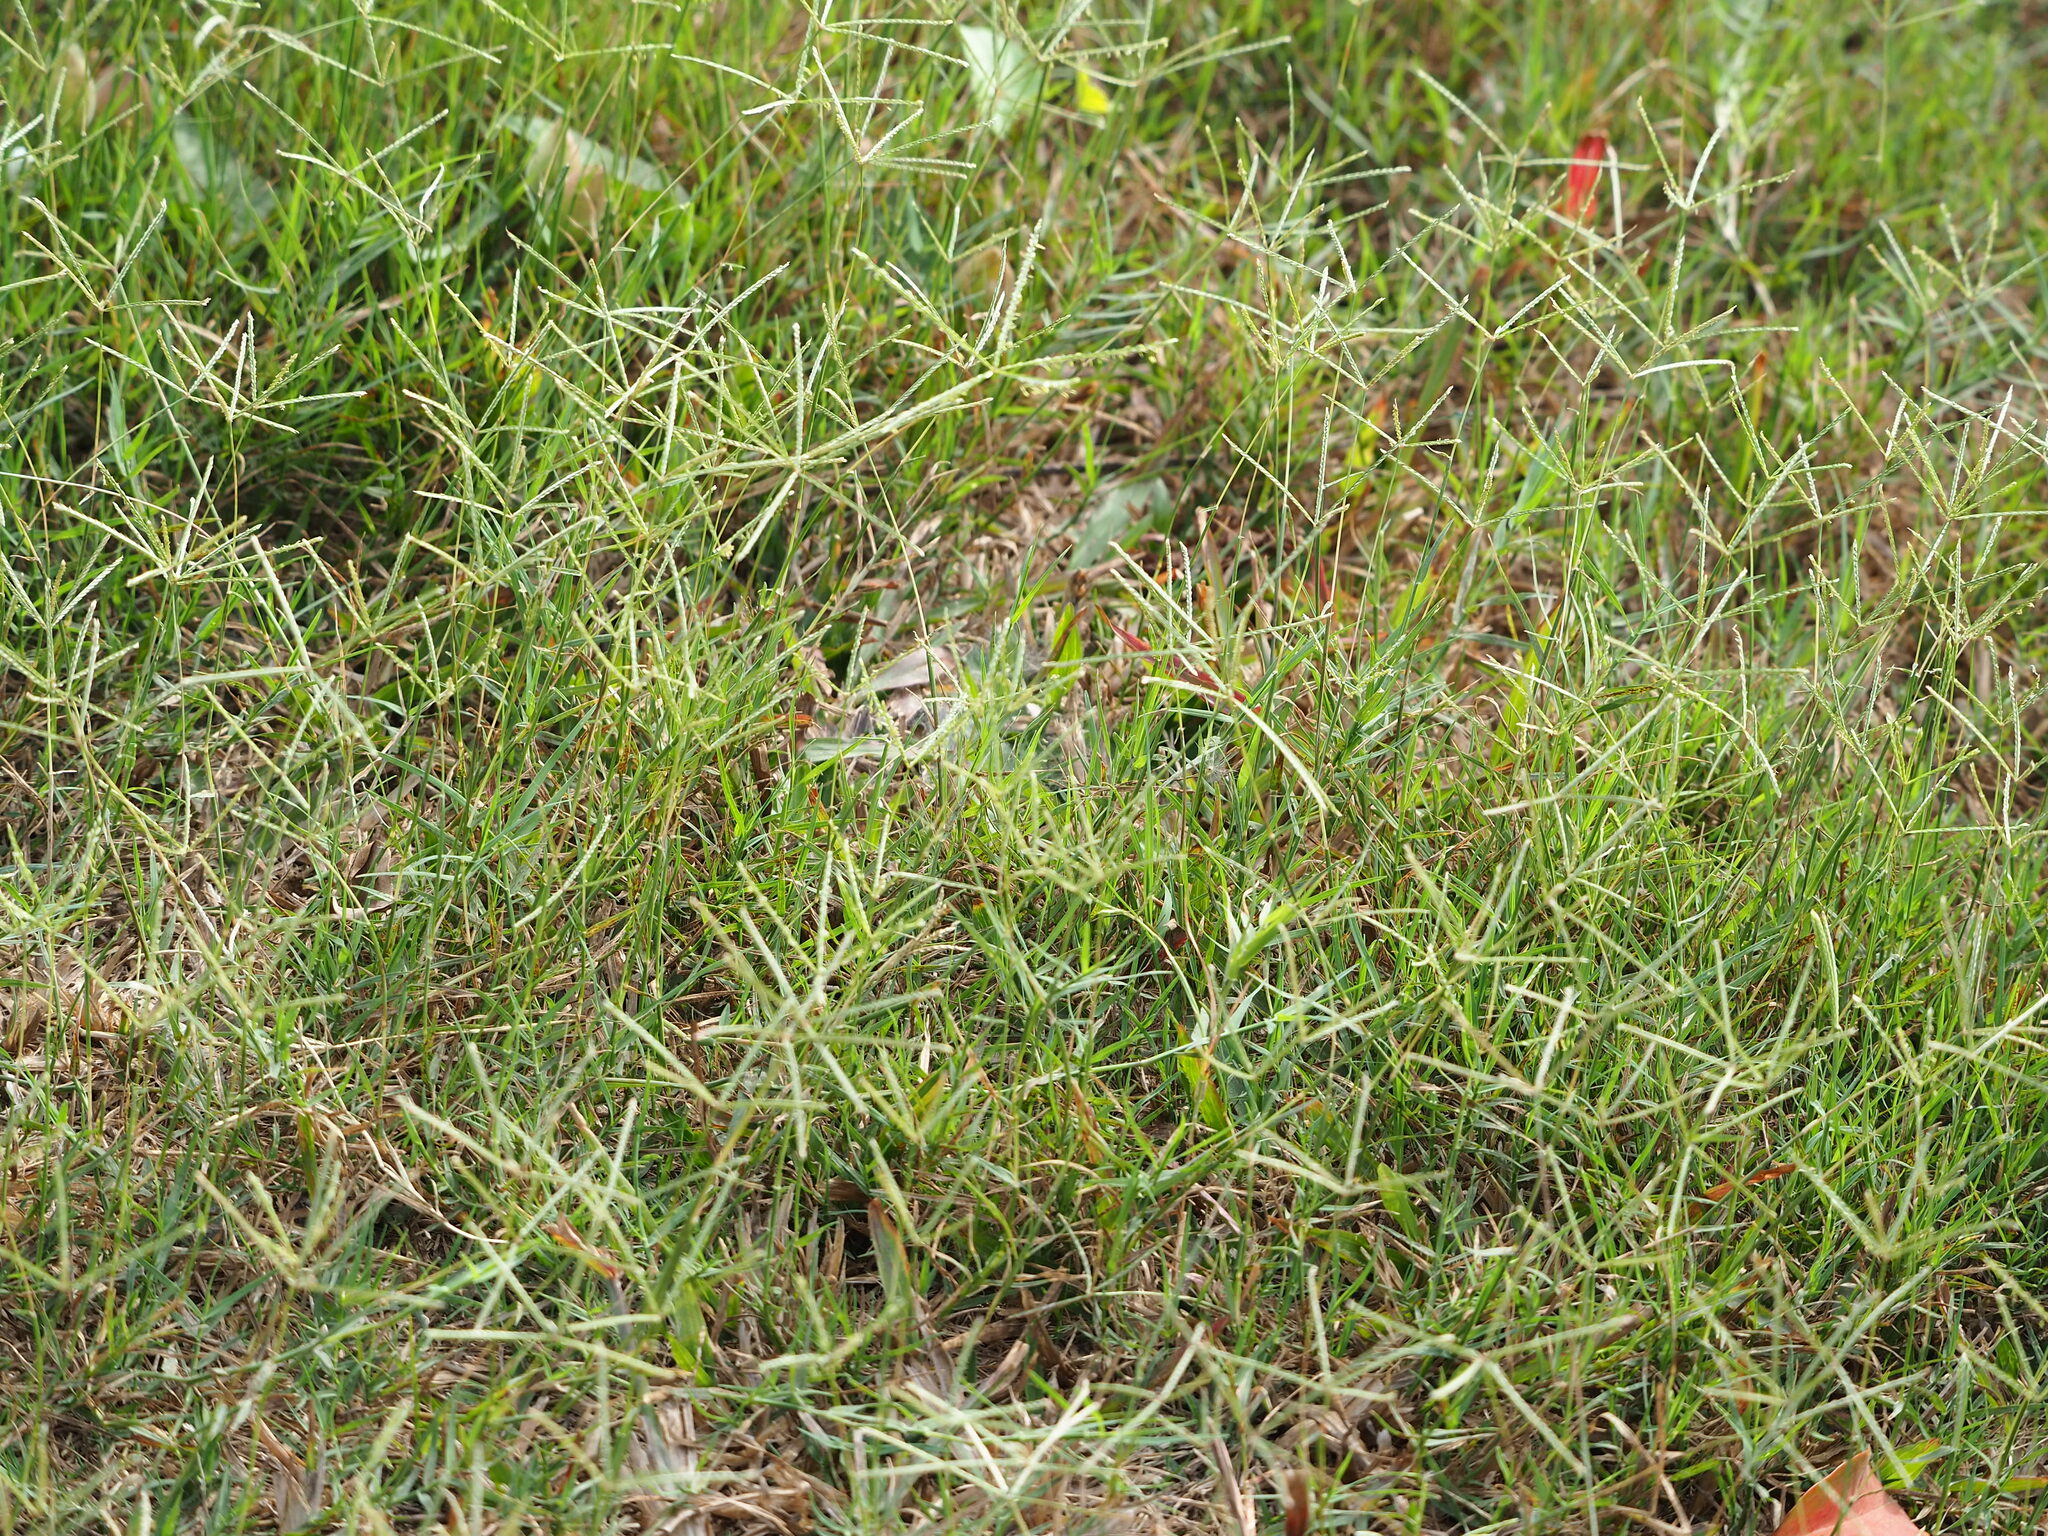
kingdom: Plantae
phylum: Tracheophyta
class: Liliopsida
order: Poales
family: Poaceae
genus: Cynodon
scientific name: Cynodon dactylon
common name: Bermuda grass
